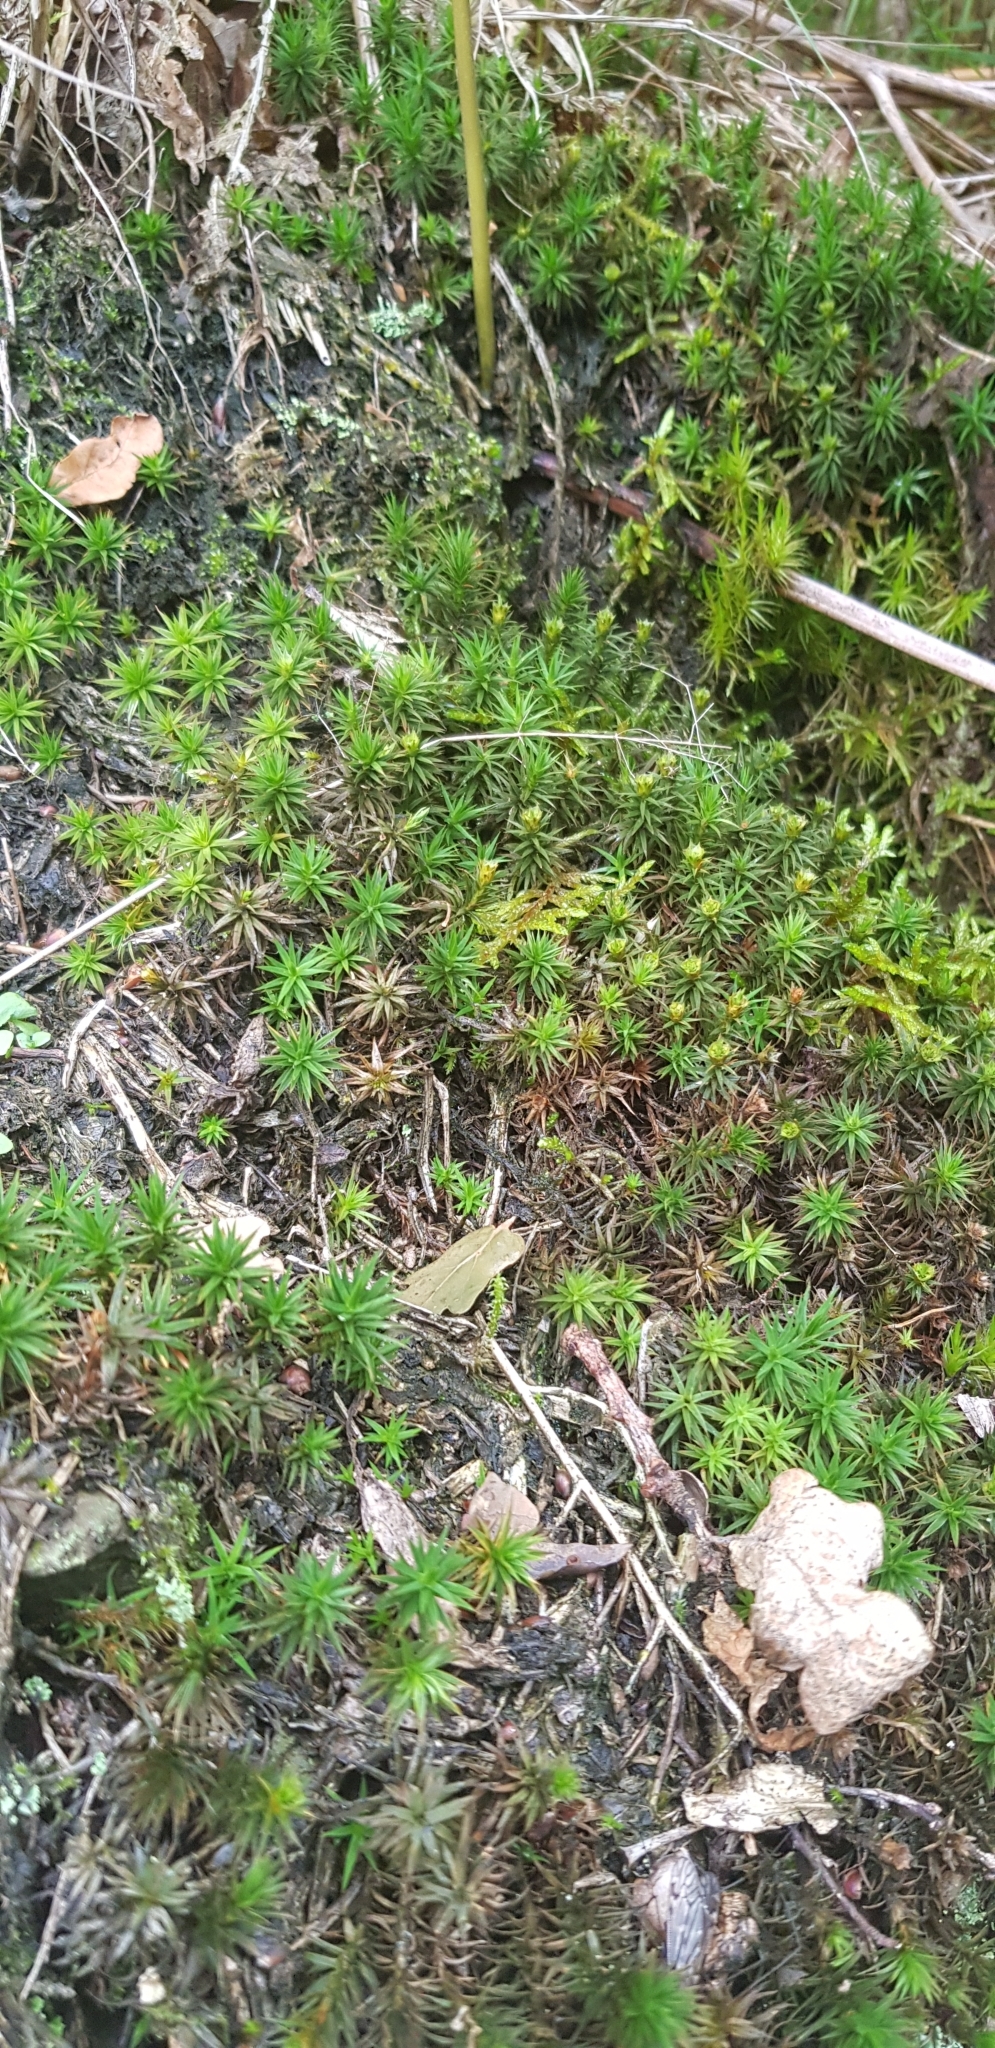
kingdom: Plantae
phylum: Bryophyta
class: Polytrichopsida
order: Polytrichales
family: Polytrichaceae
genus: Polytrichum
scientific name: Polytrichum juniperinum
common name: Juniper haircap moss
